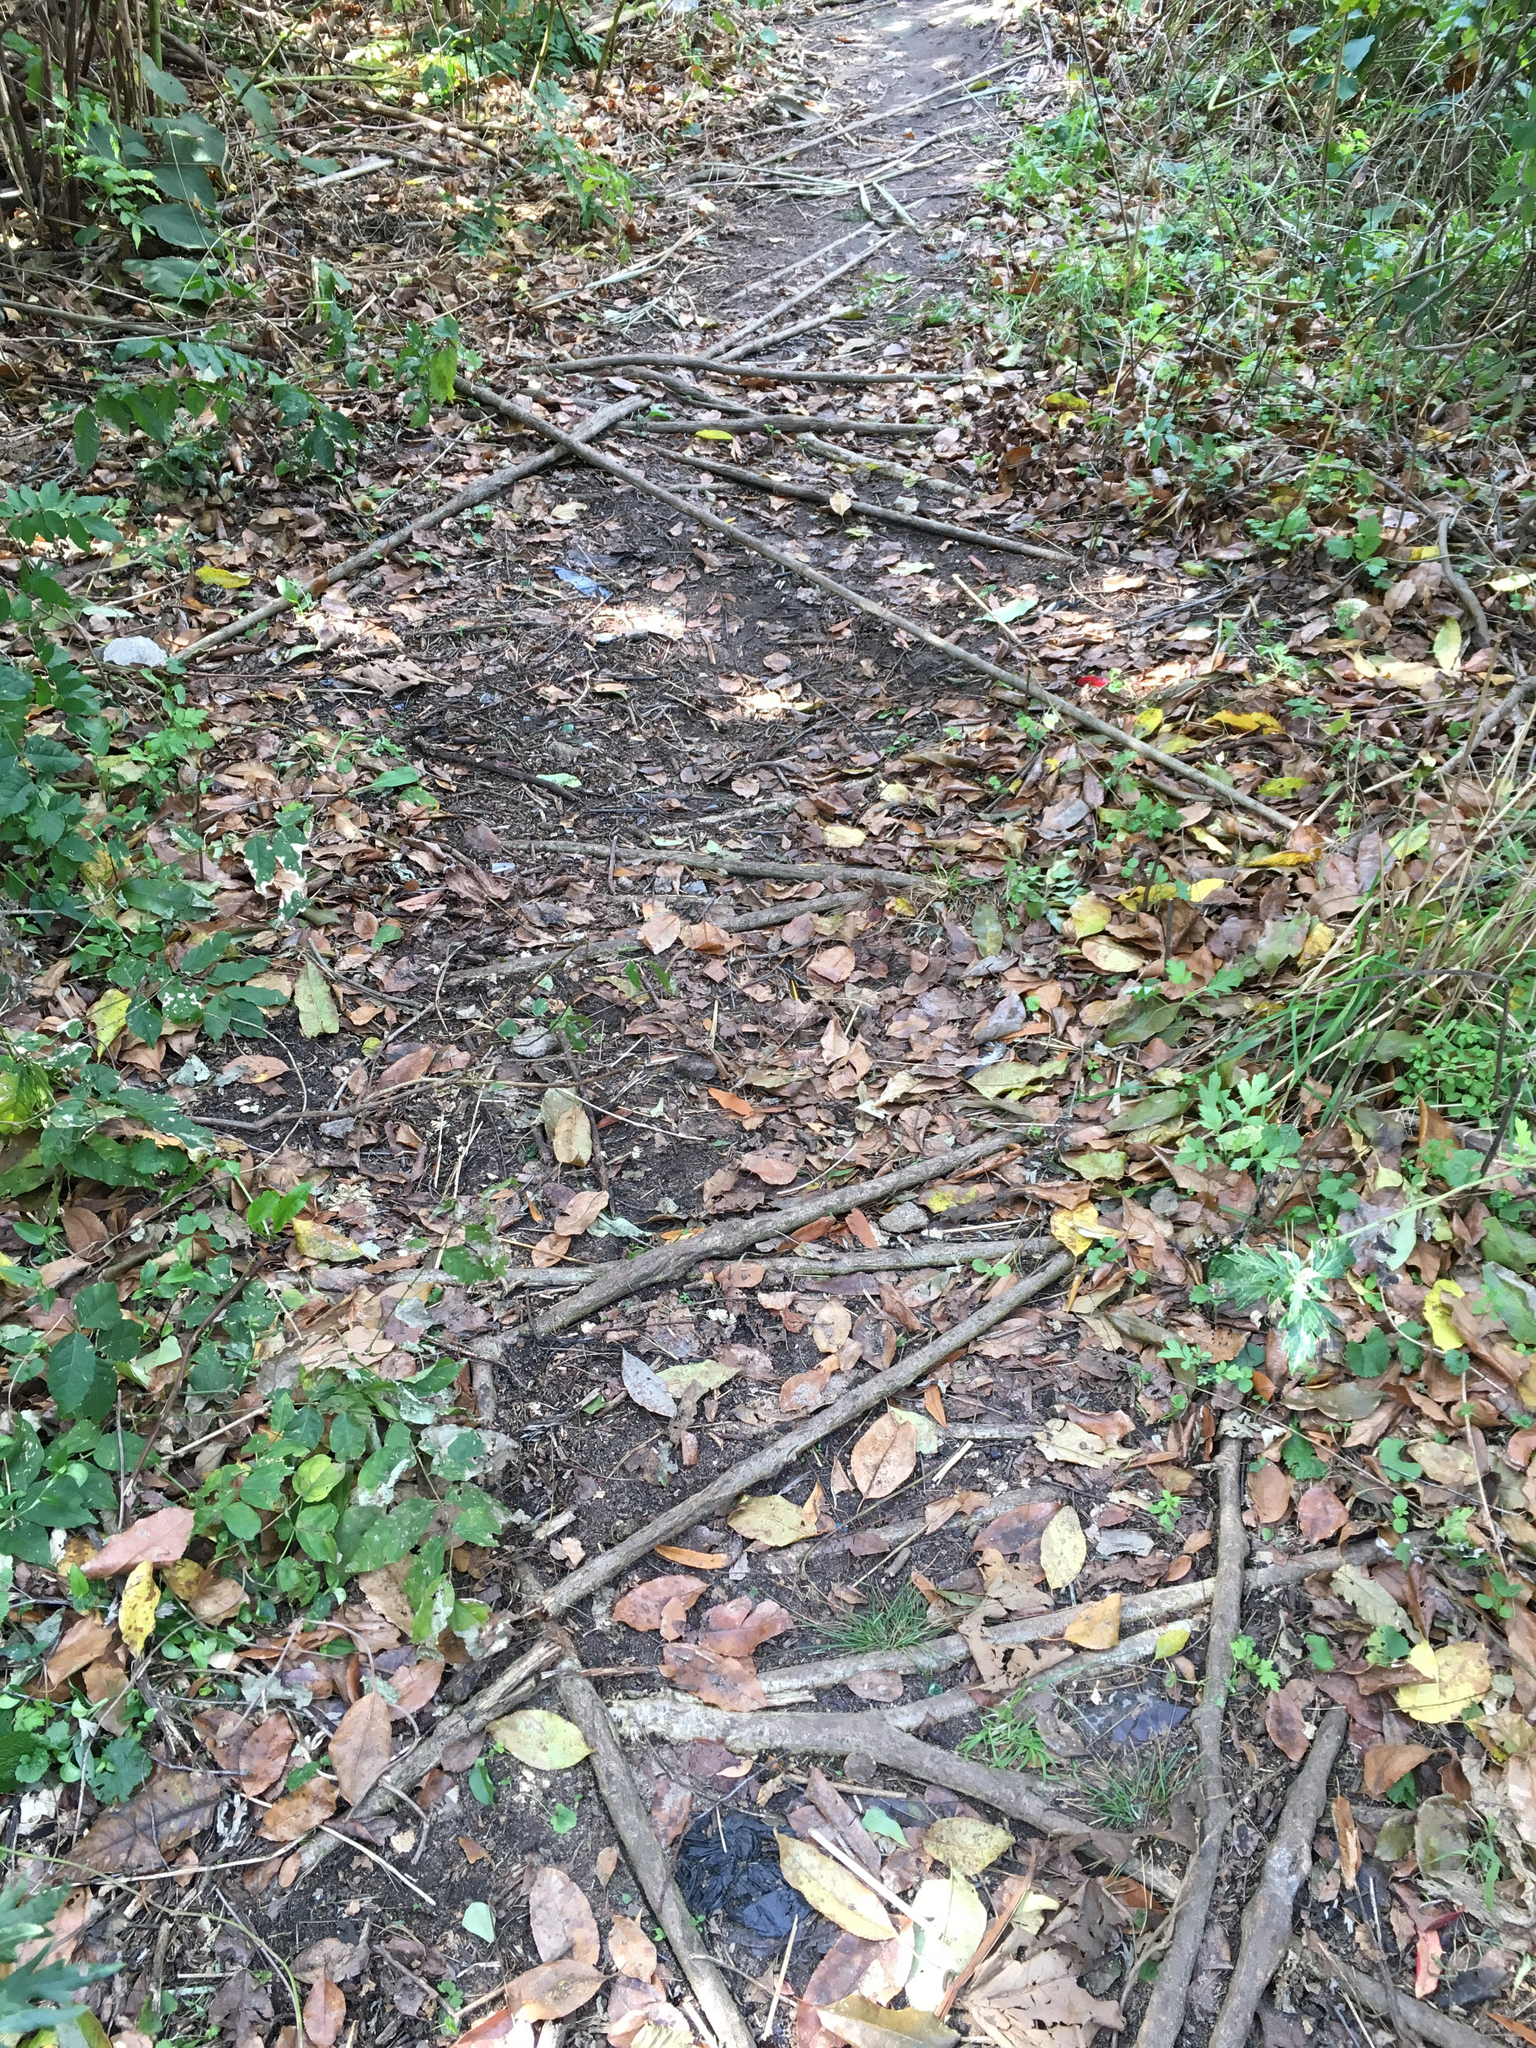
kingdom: Plantae
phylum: Tracheophyta
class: Magnoliopsida
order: Fabales
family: Fabaceae
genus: Wisteria
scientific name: Wisteria sinensis
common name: Chinese wisteria
